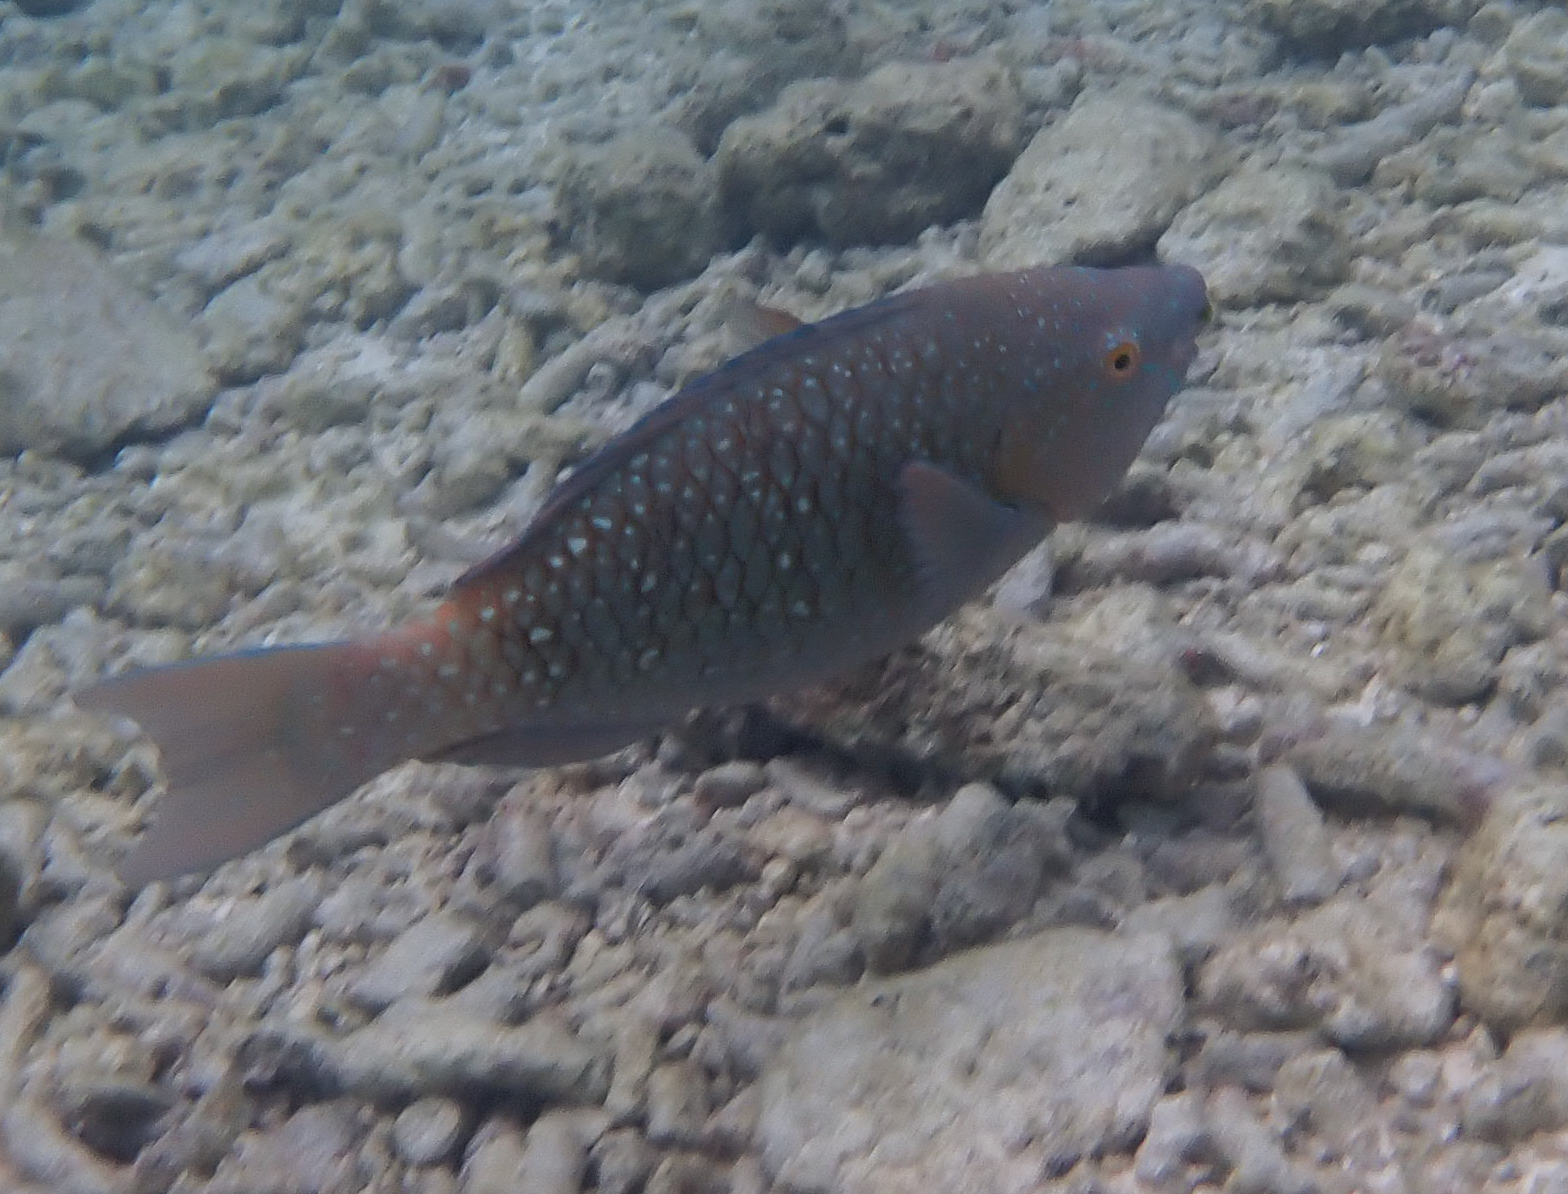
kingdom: Animalia
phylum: Chordata
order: Perciformes
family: Scaridae
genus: Scarus
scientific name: Scarus prasiognathos
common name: Singapore parrotfish
